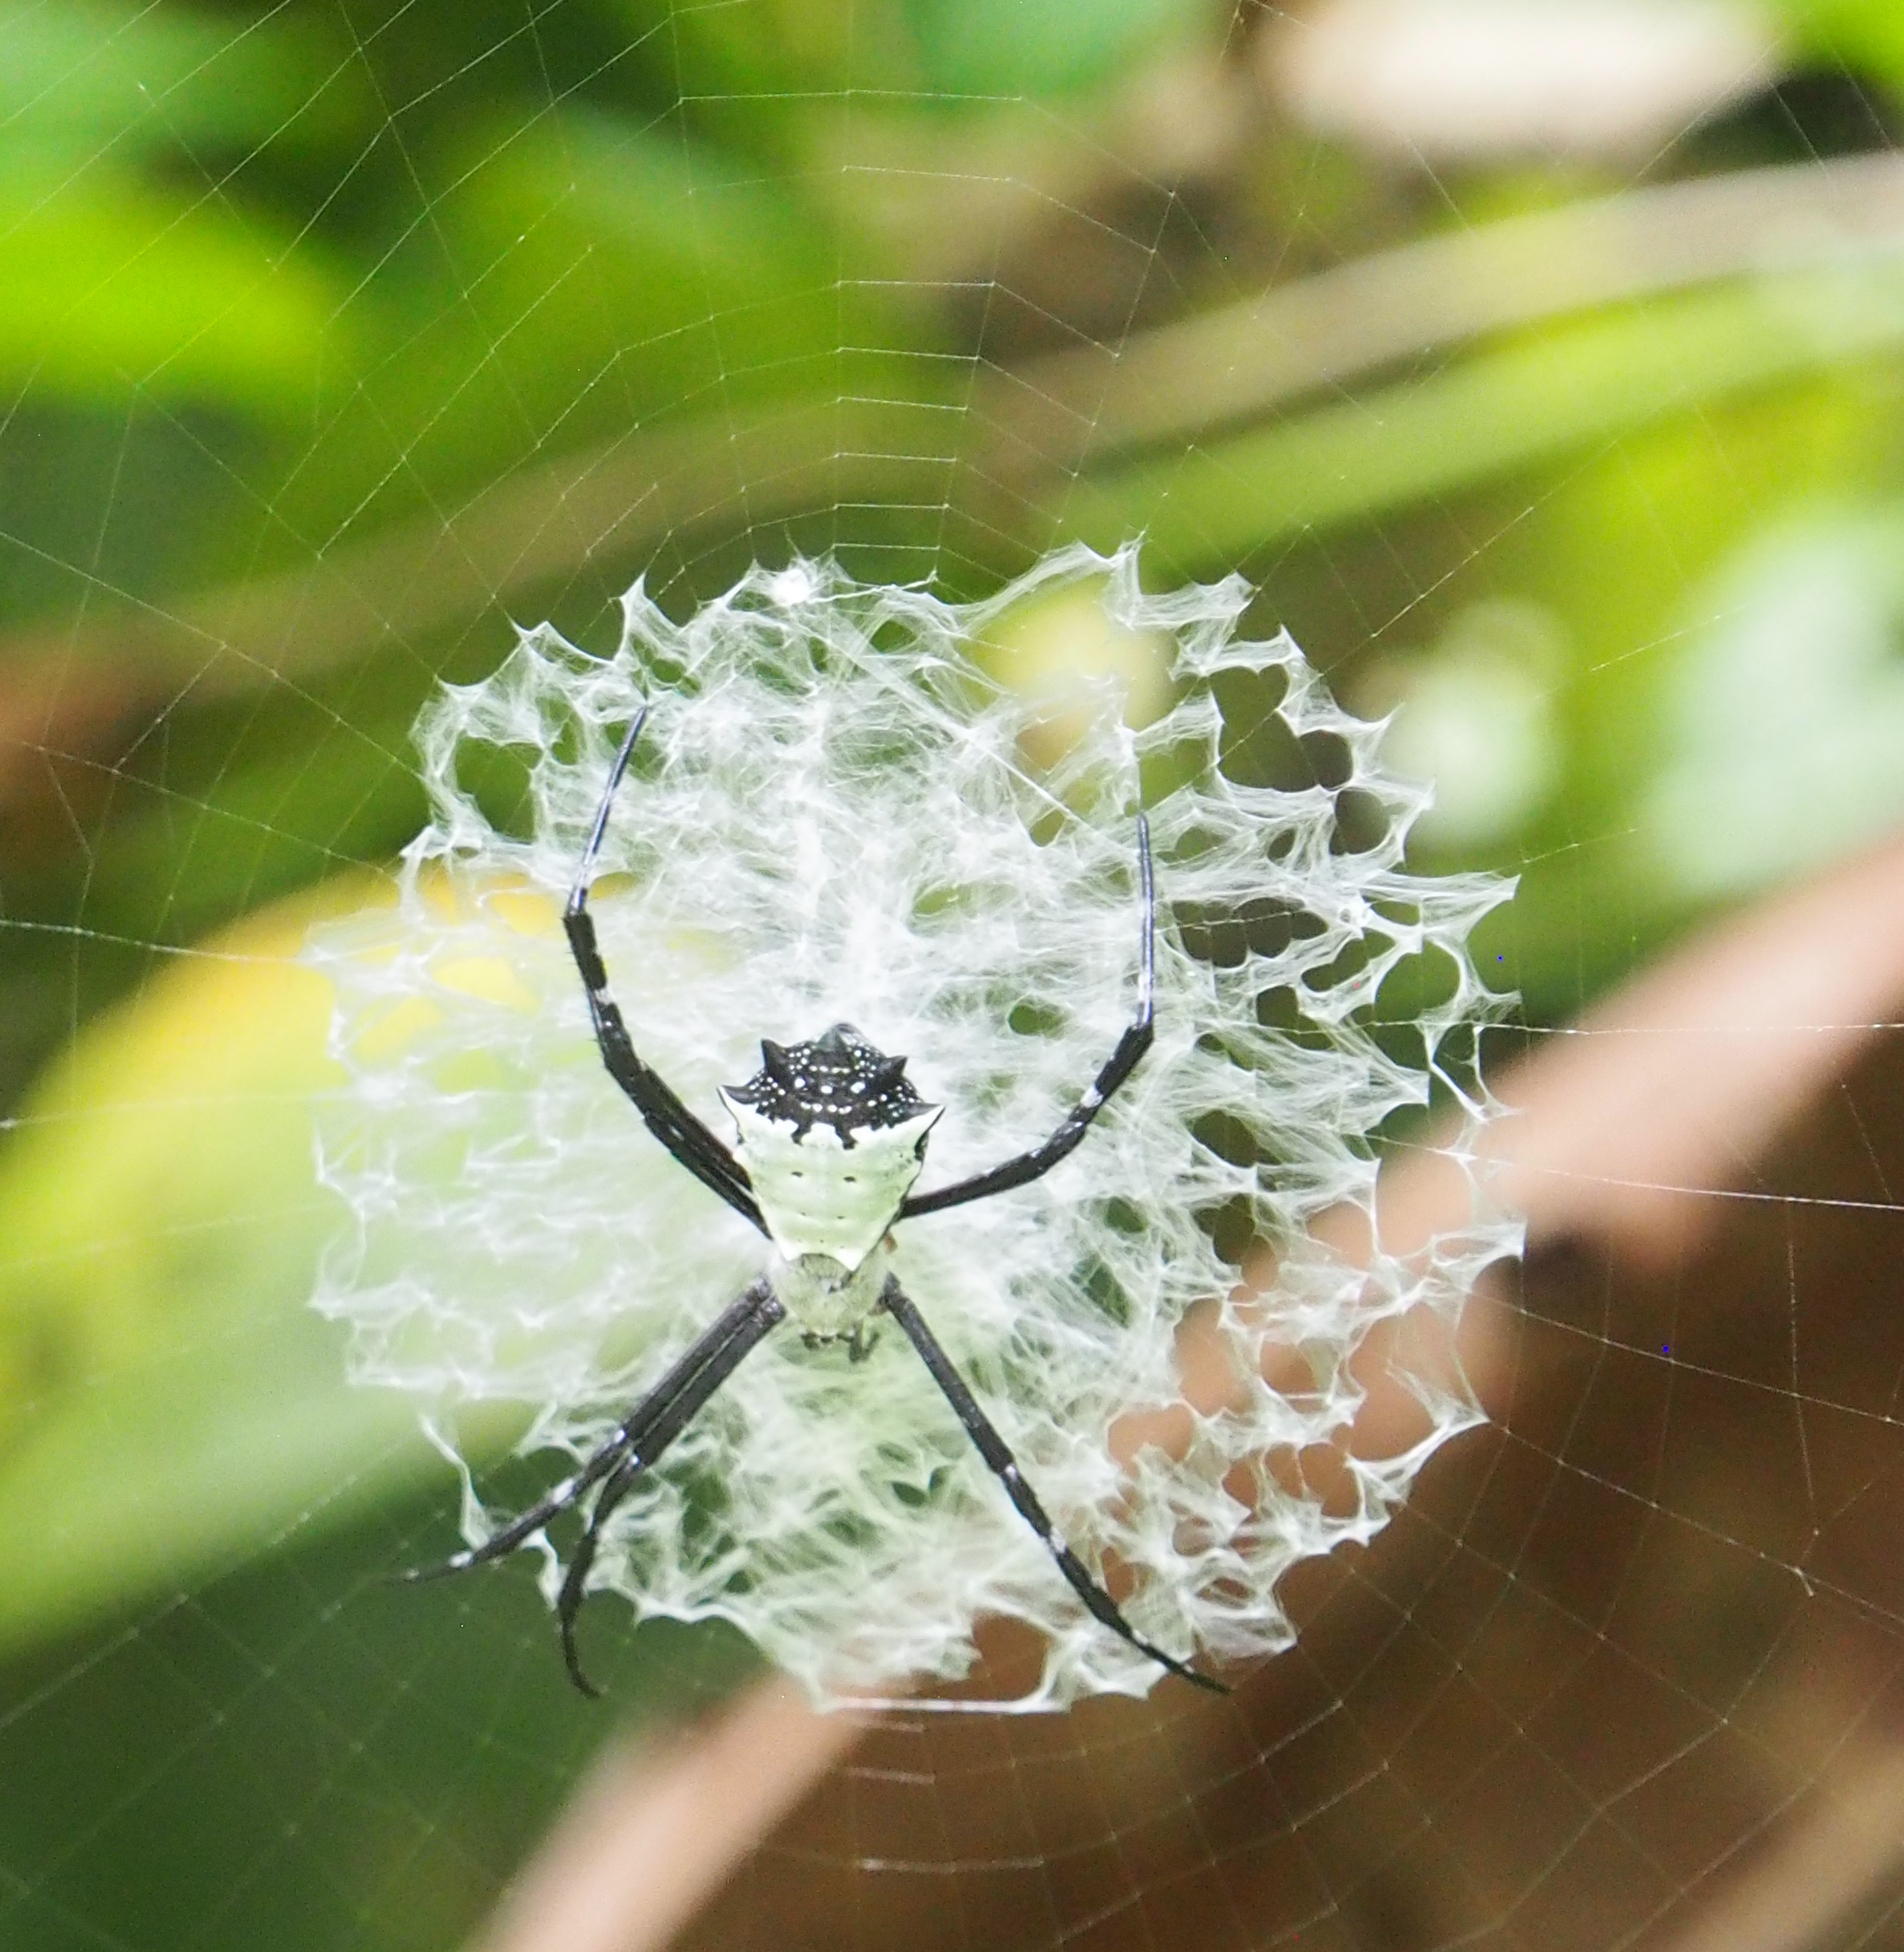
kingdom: Animalia
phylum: Arthropoda
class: Arachnida
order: Araneae
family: Araneidae
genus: Argiope
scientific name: Argiope submaronica
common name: Orb weavers
